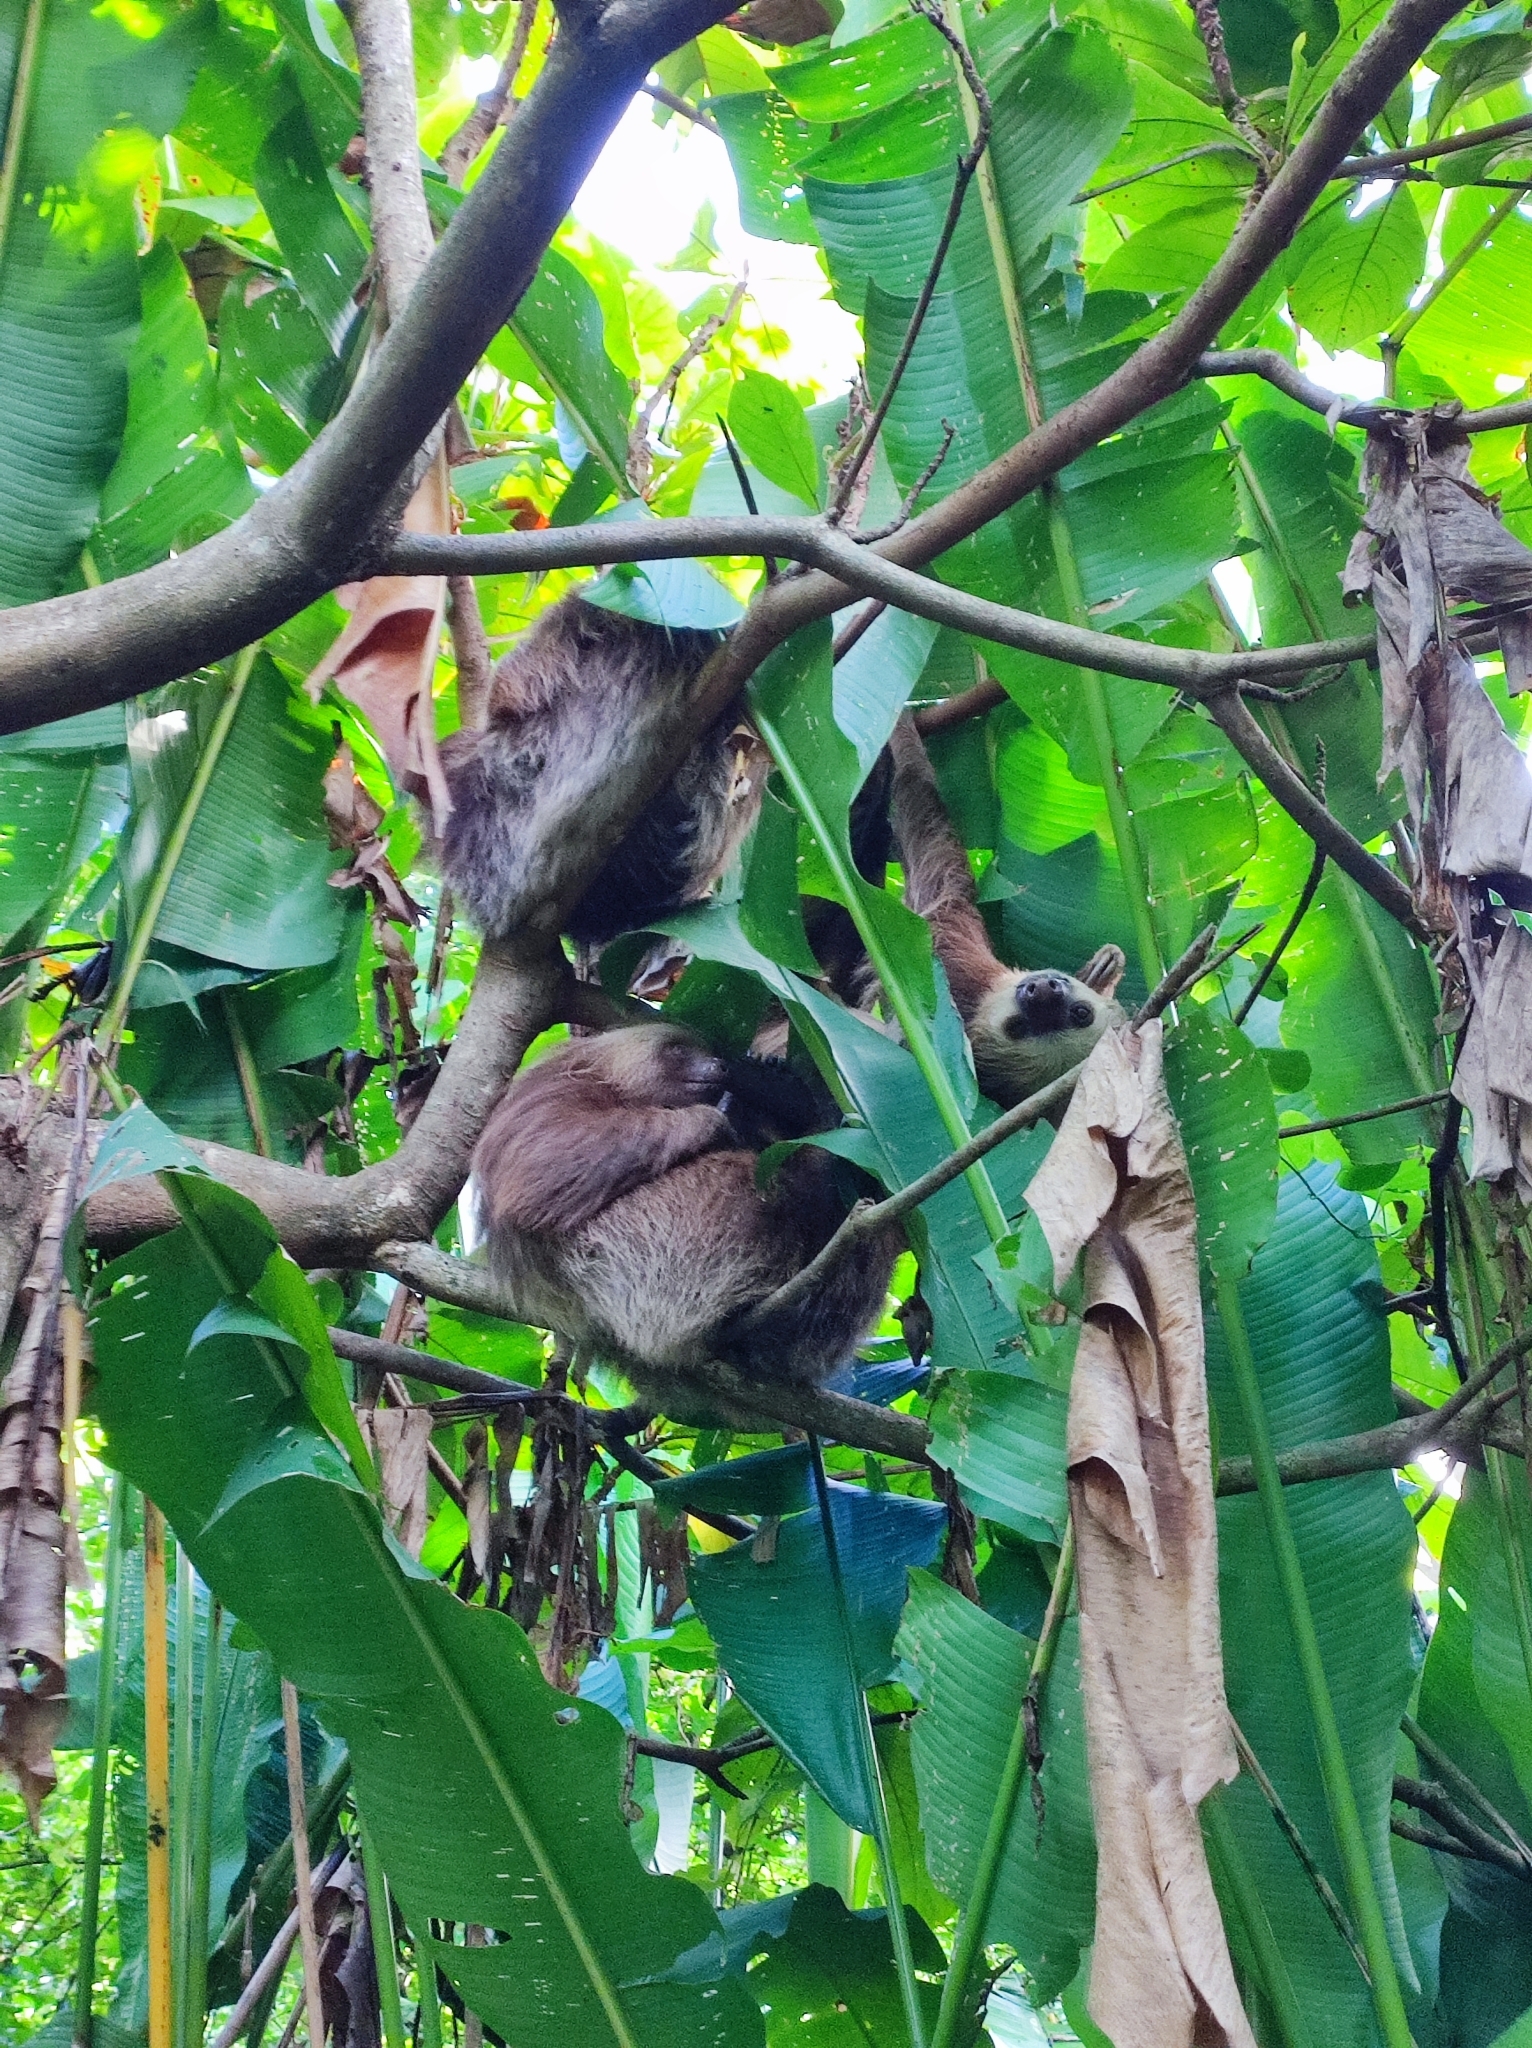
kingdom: Animalia
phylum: Chordata
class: Mammalia
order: Pilosa
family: Megalonychidae
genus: Choloepus
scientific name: Choloepus hoffmanni
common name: Hoffmann's two-toed sloth
